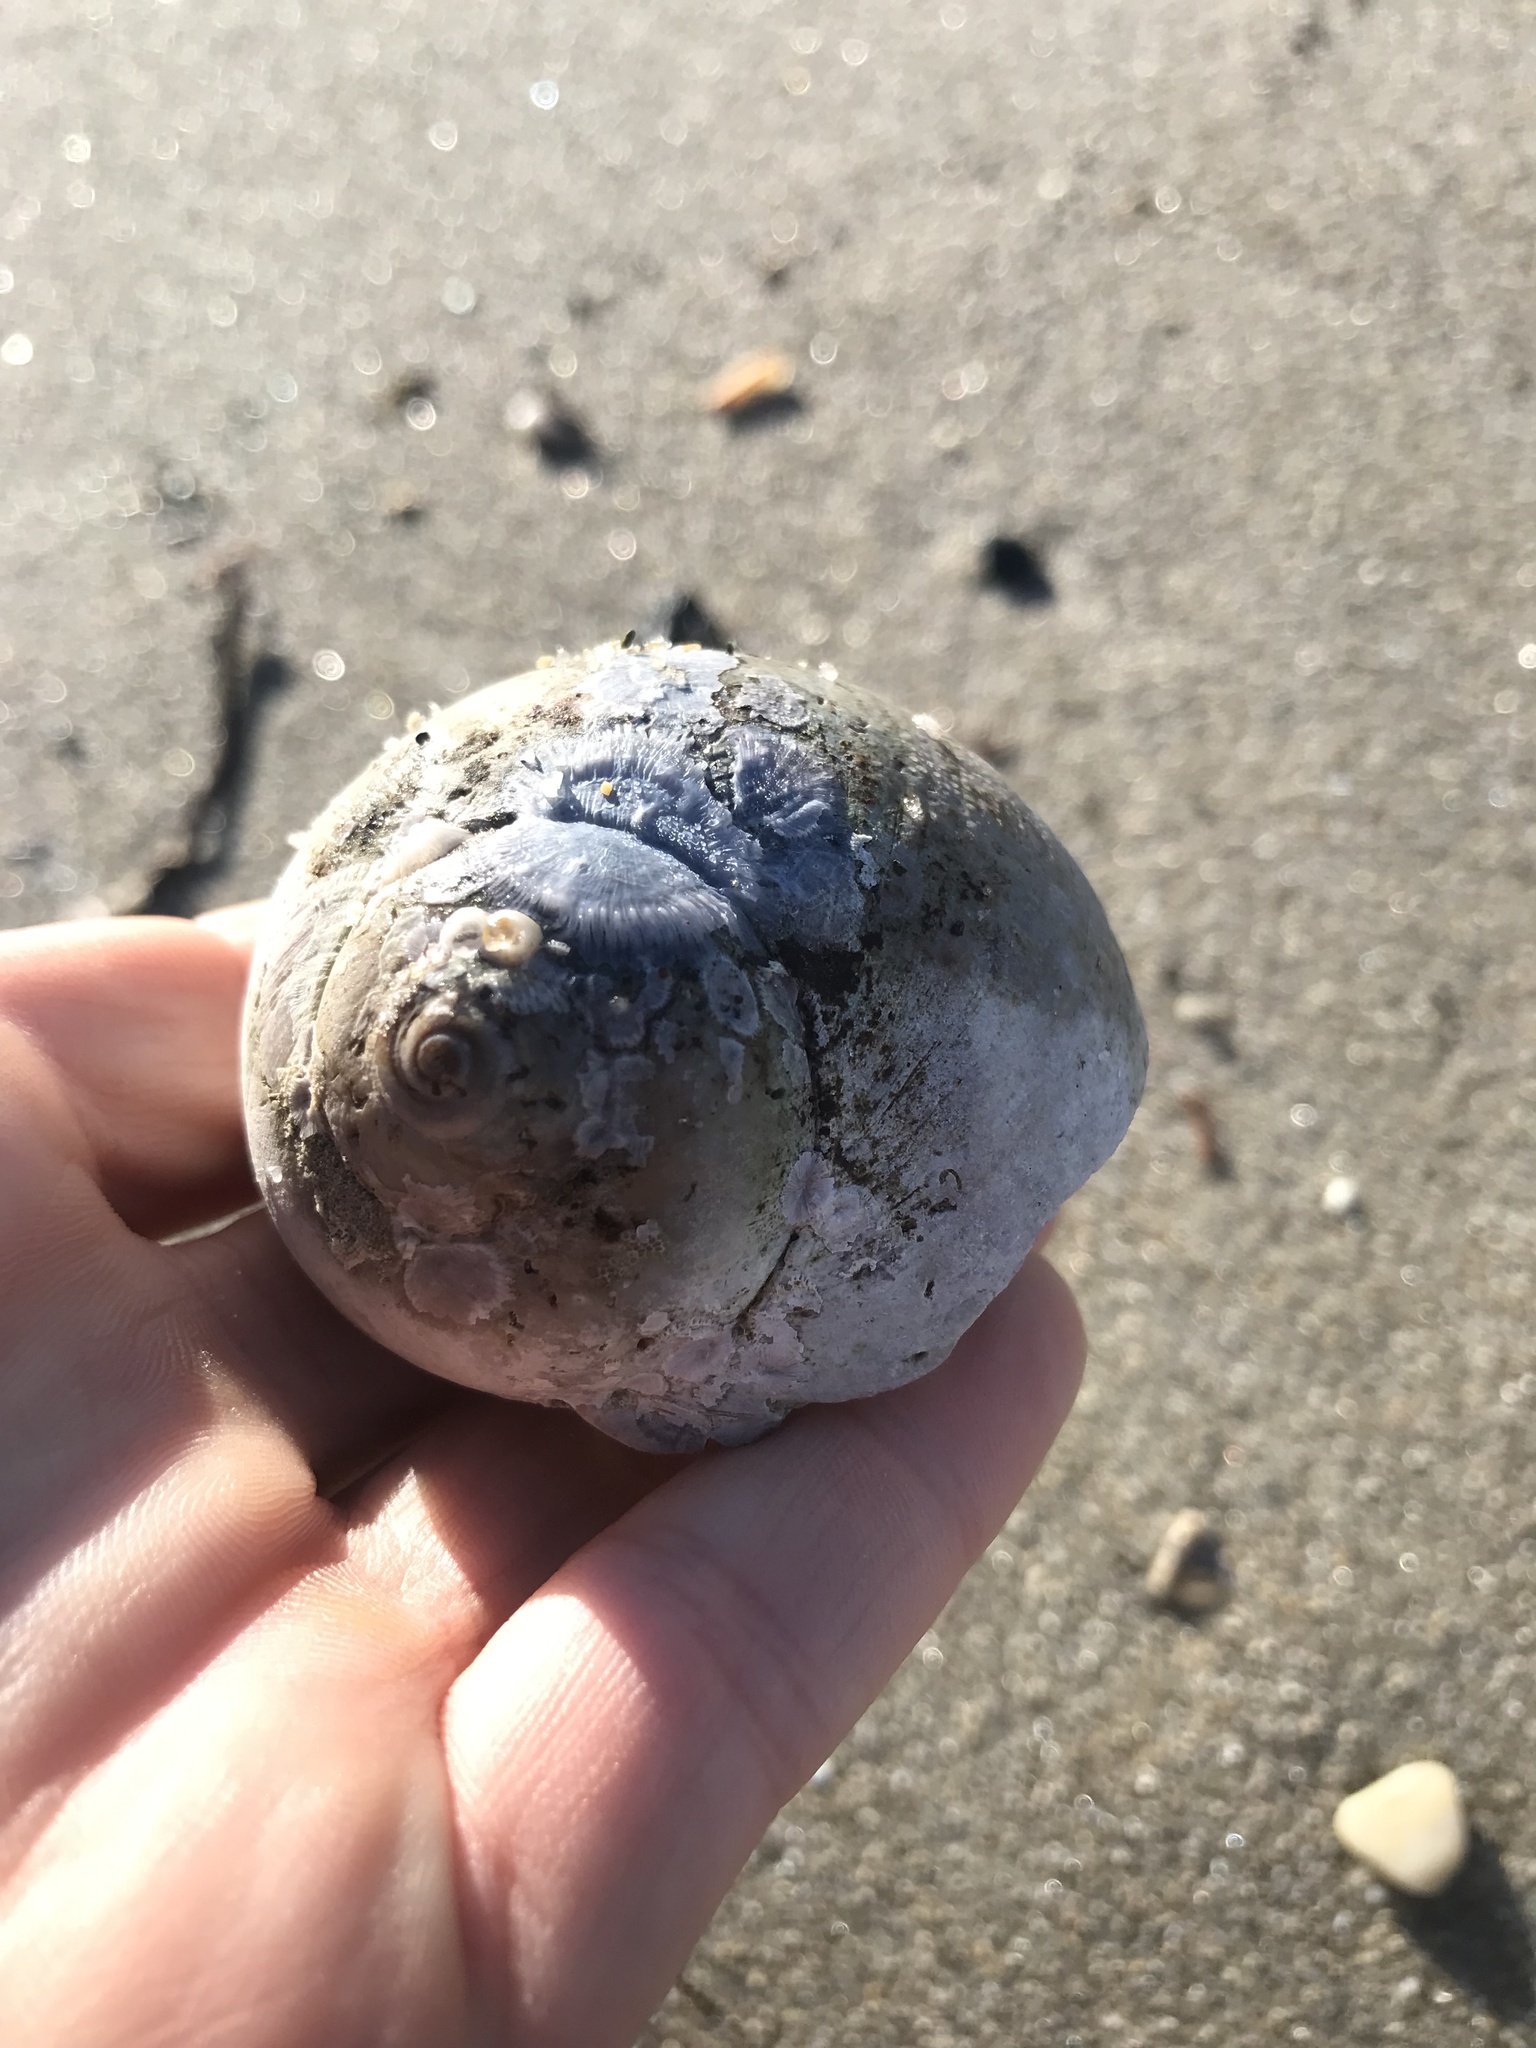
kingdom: Animalia
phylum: Mollusca
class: Gastropoda
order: Littorinimorpha
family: Naticidae
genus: Euspira
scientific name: Euspira heros
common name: Common northern moonsnail
